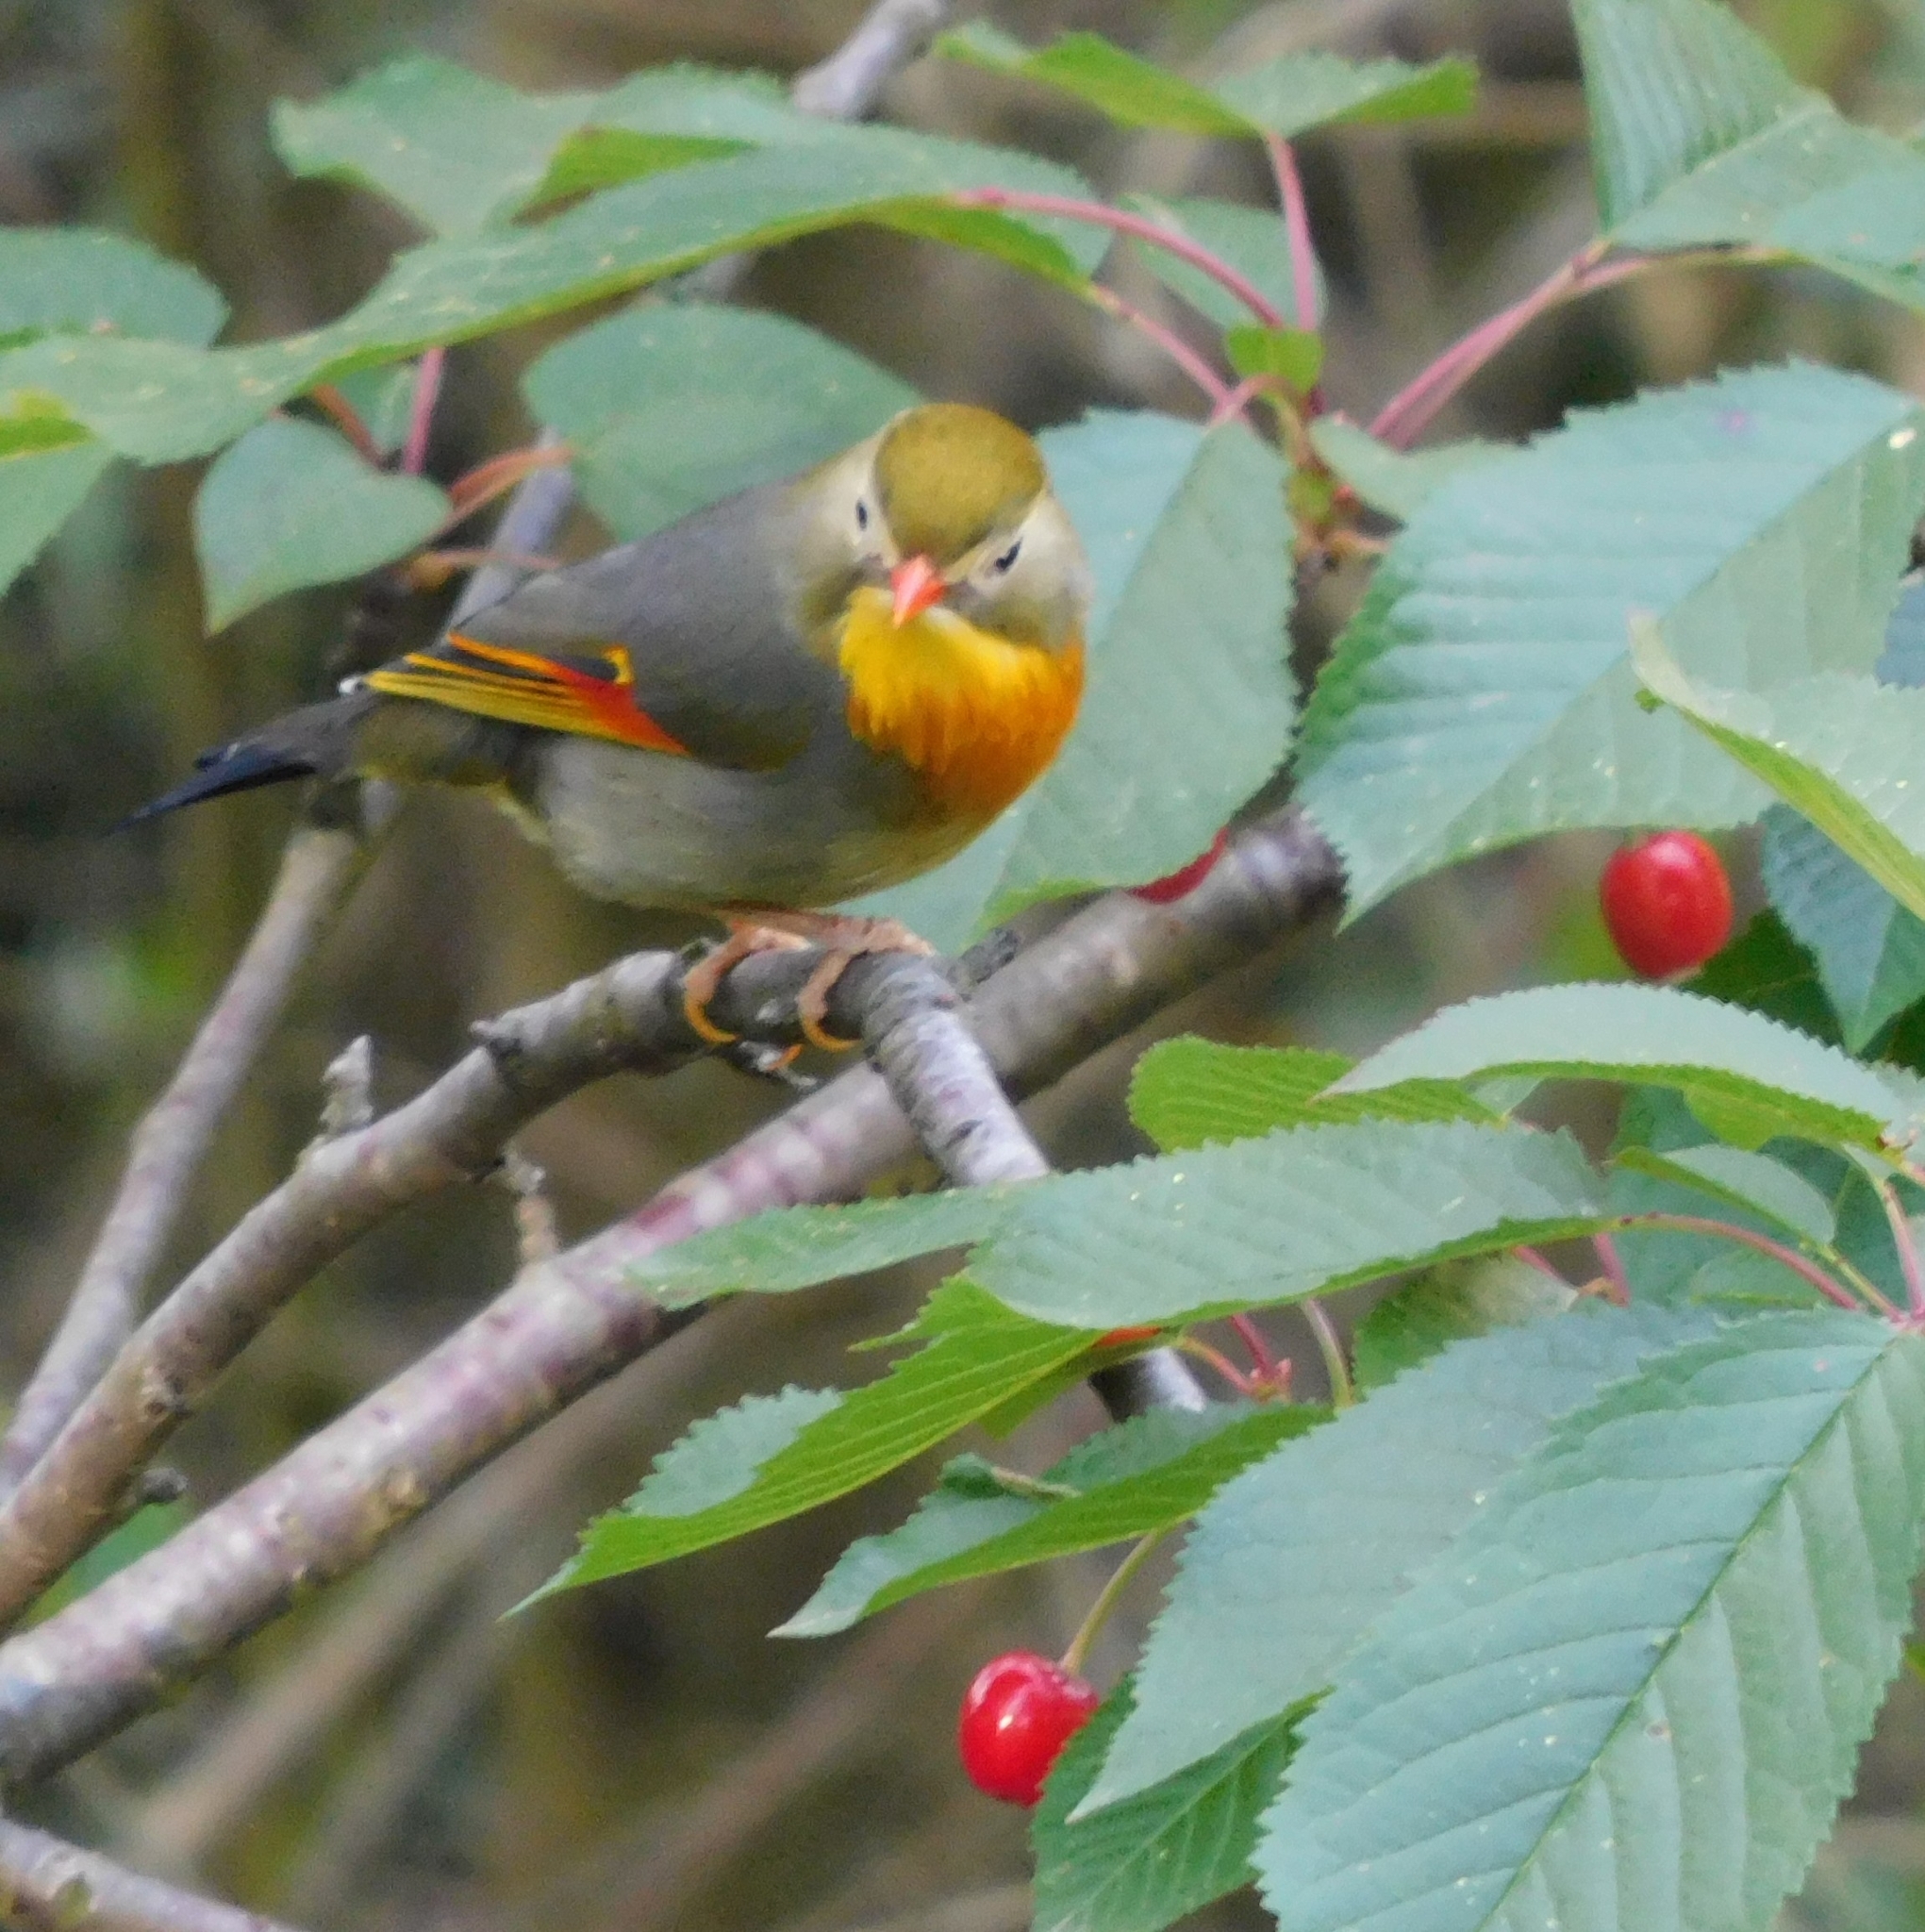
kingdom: Animalia
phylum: Chordata
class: Aves
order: Passeriformes
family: Leiothrichidae
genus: Leiothrix
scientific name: Leiothrix lutea
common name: Red-billed leiothrix
